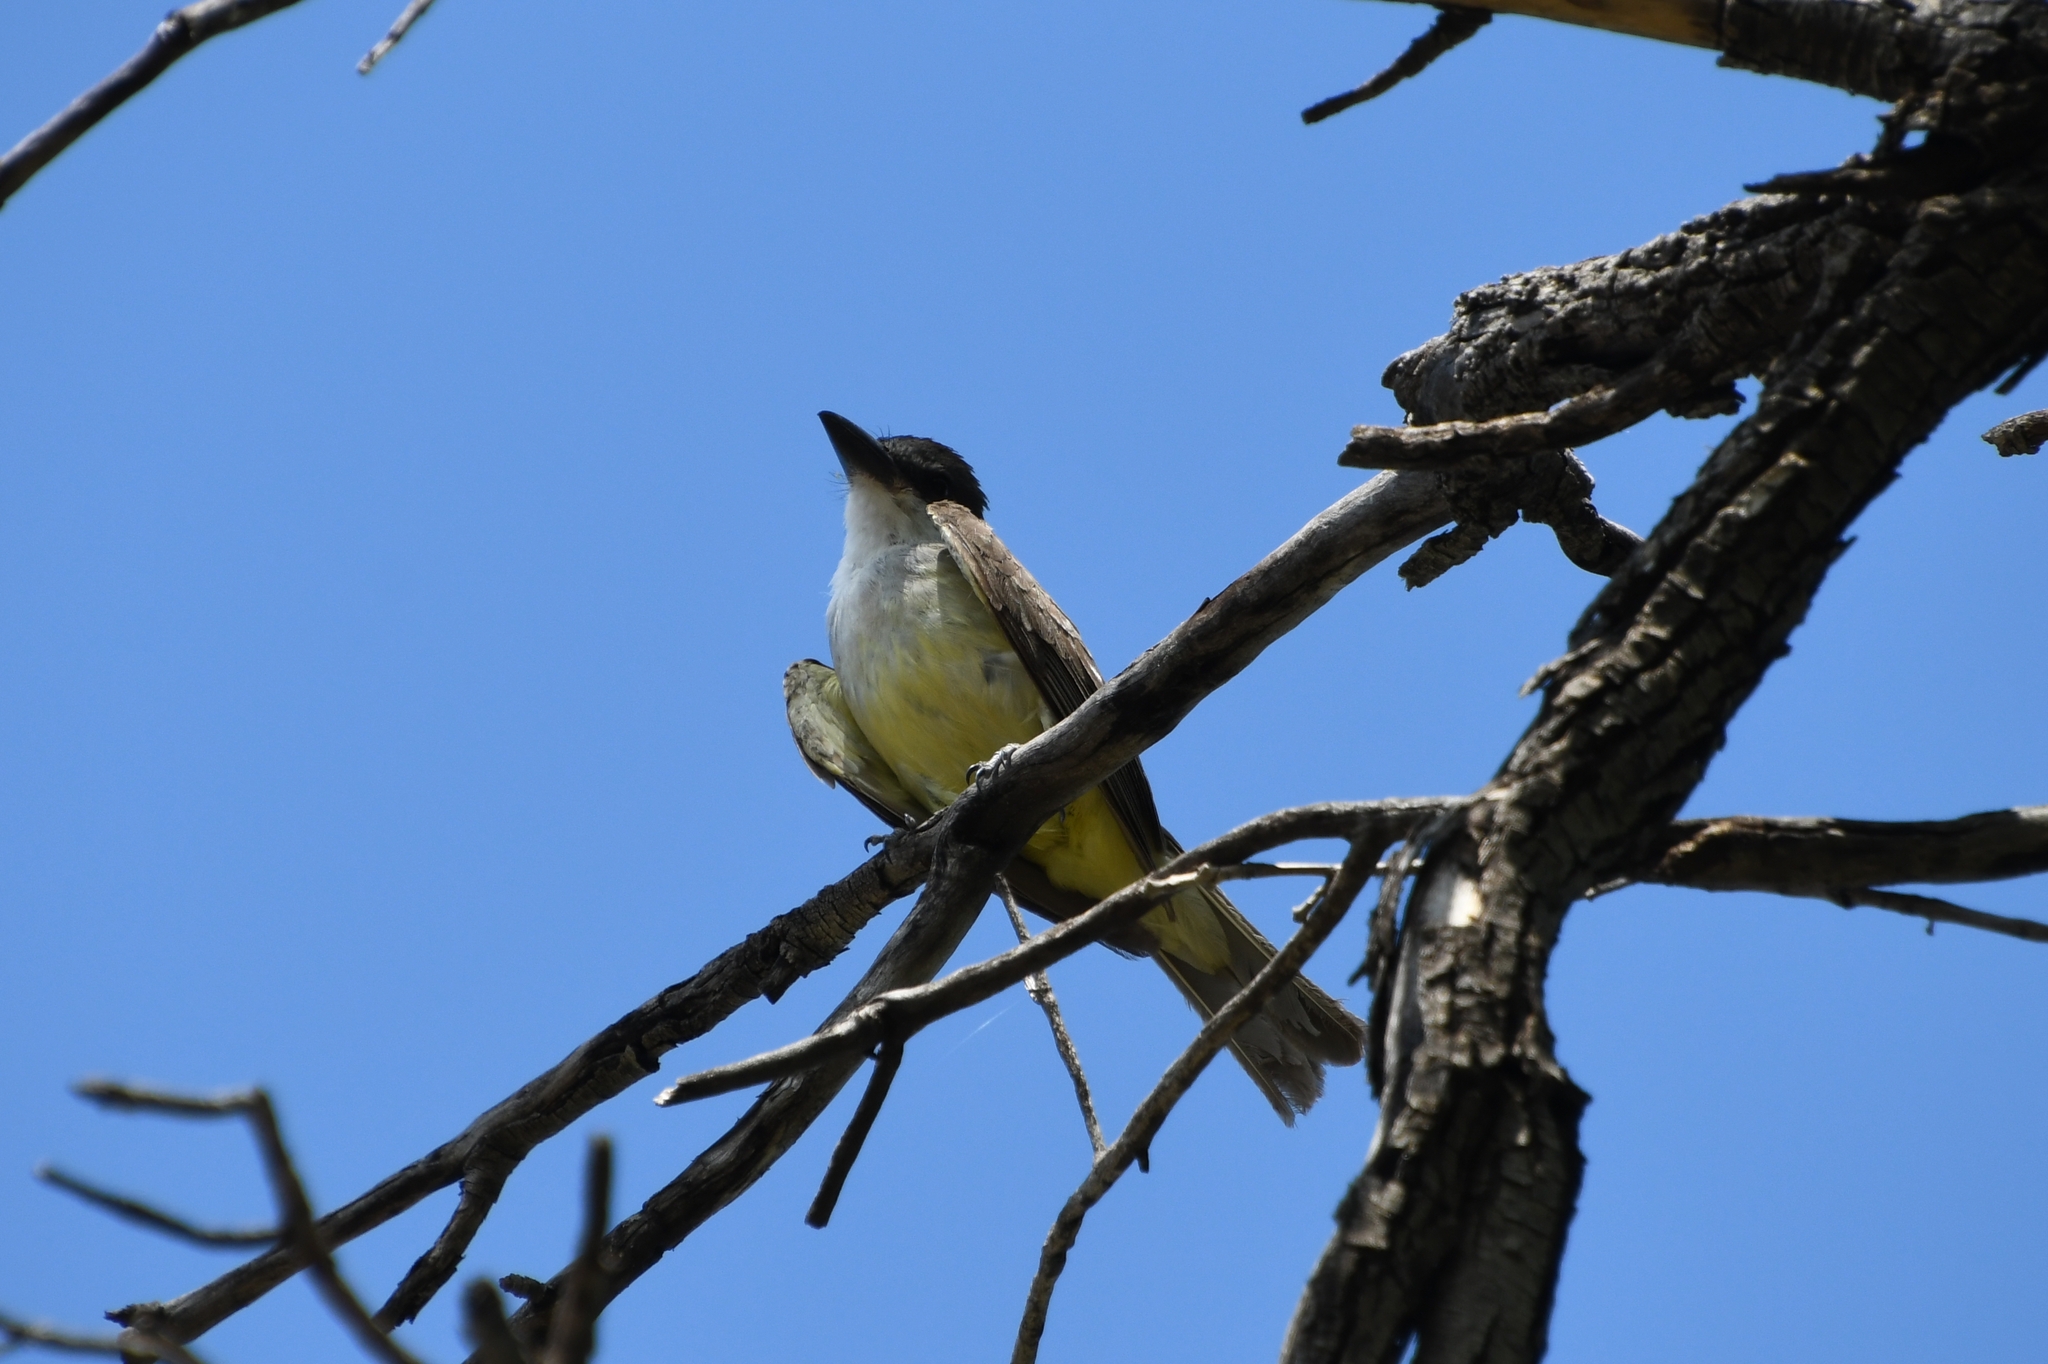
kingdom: Animalia
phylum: Chordata
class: Aves
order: Passeriformes
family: Tyrannidae
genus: Tyrannus
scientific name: Tyrannus crassirostris
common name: Thick-billed kingbird
